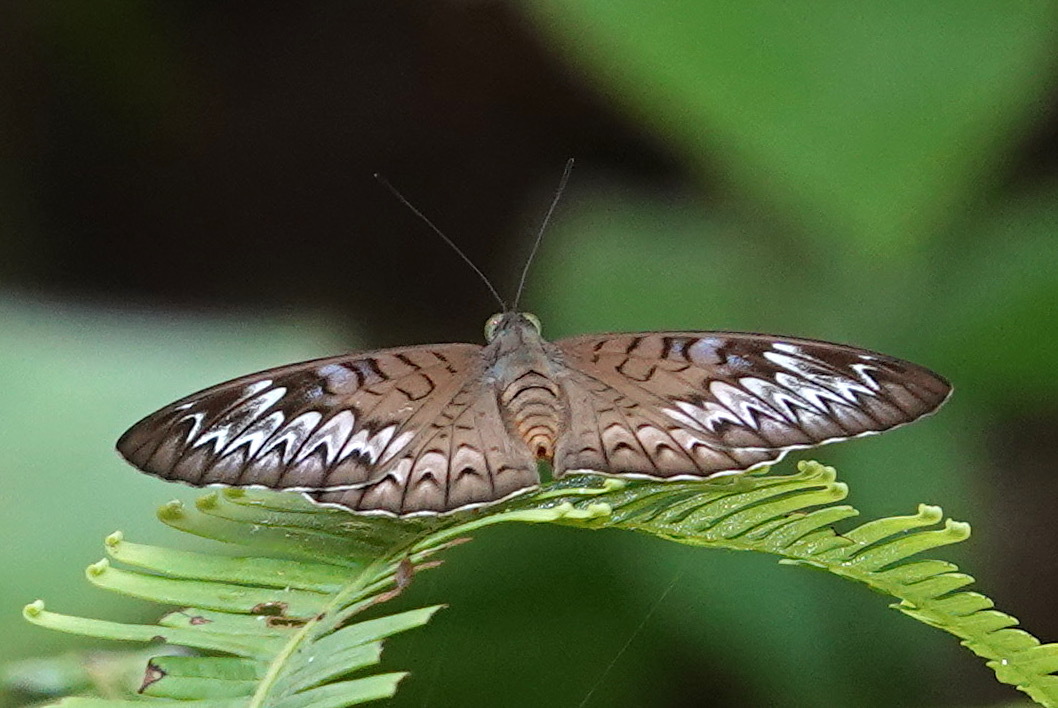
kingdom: Animalia
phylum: Arthropoda
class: Insecta
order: Lepidoptera
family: Nymphalidae
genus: Tanaecia
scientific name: Tanaecia pelea
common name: Malay viscount
